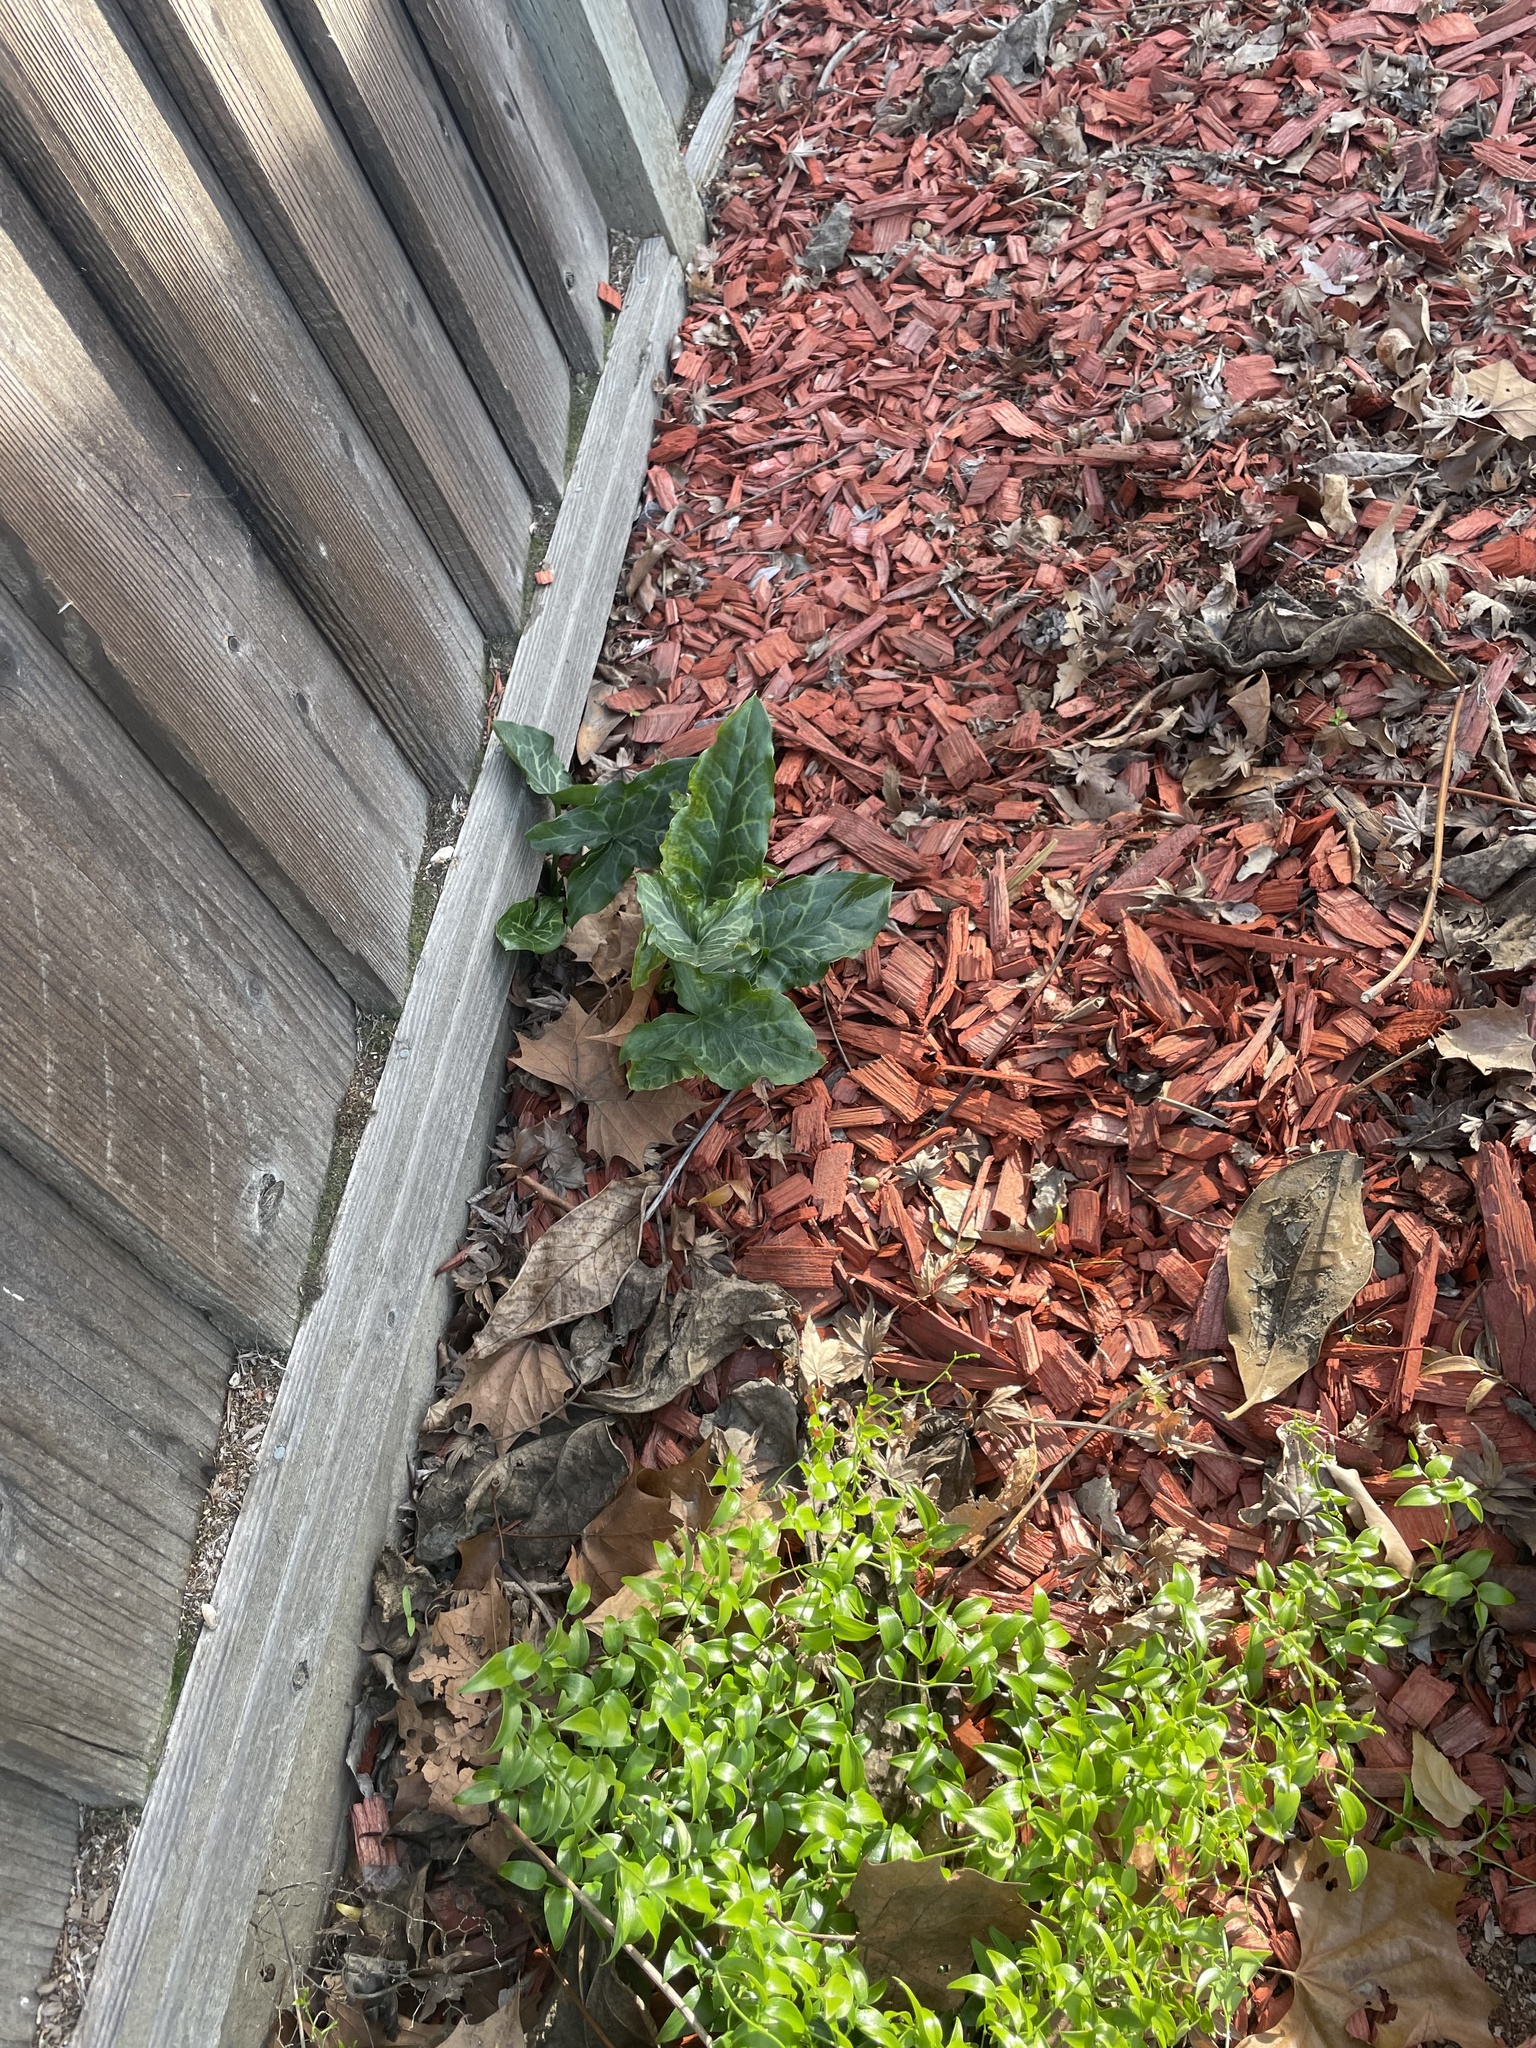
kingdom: Plantae
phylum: Tracheophyta
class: Liliopsida
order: Alismatales
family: Araceae
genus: Arum
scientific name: Arum italicum
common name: Italian lords-and-ladies
